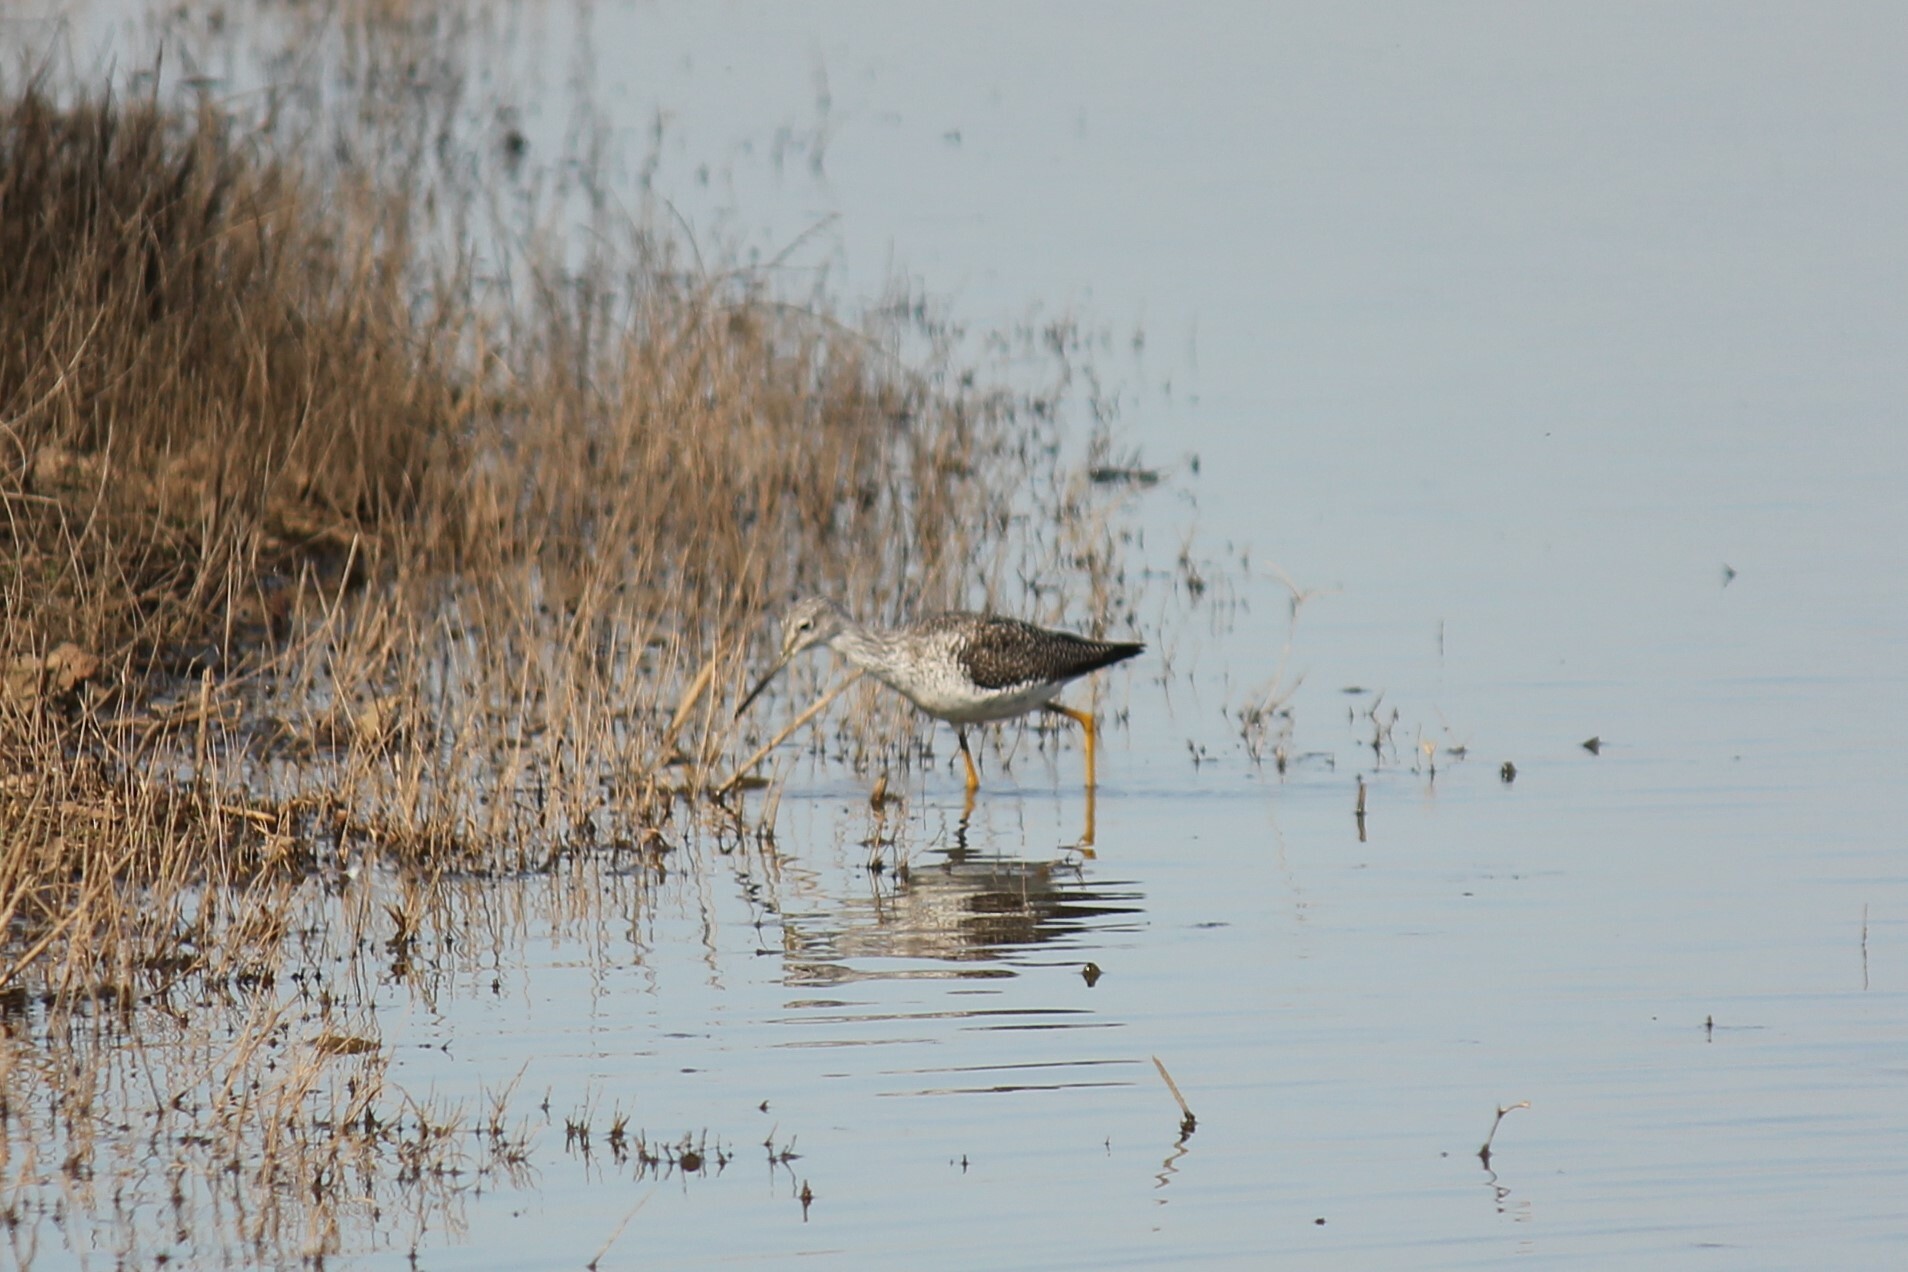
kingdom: Animalia
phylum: Chordata
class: Aves
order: Charadriiformes
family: Scolopacidae
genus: Tringa
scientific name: Tringa melanoleuca
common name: Greater yellowlegs
